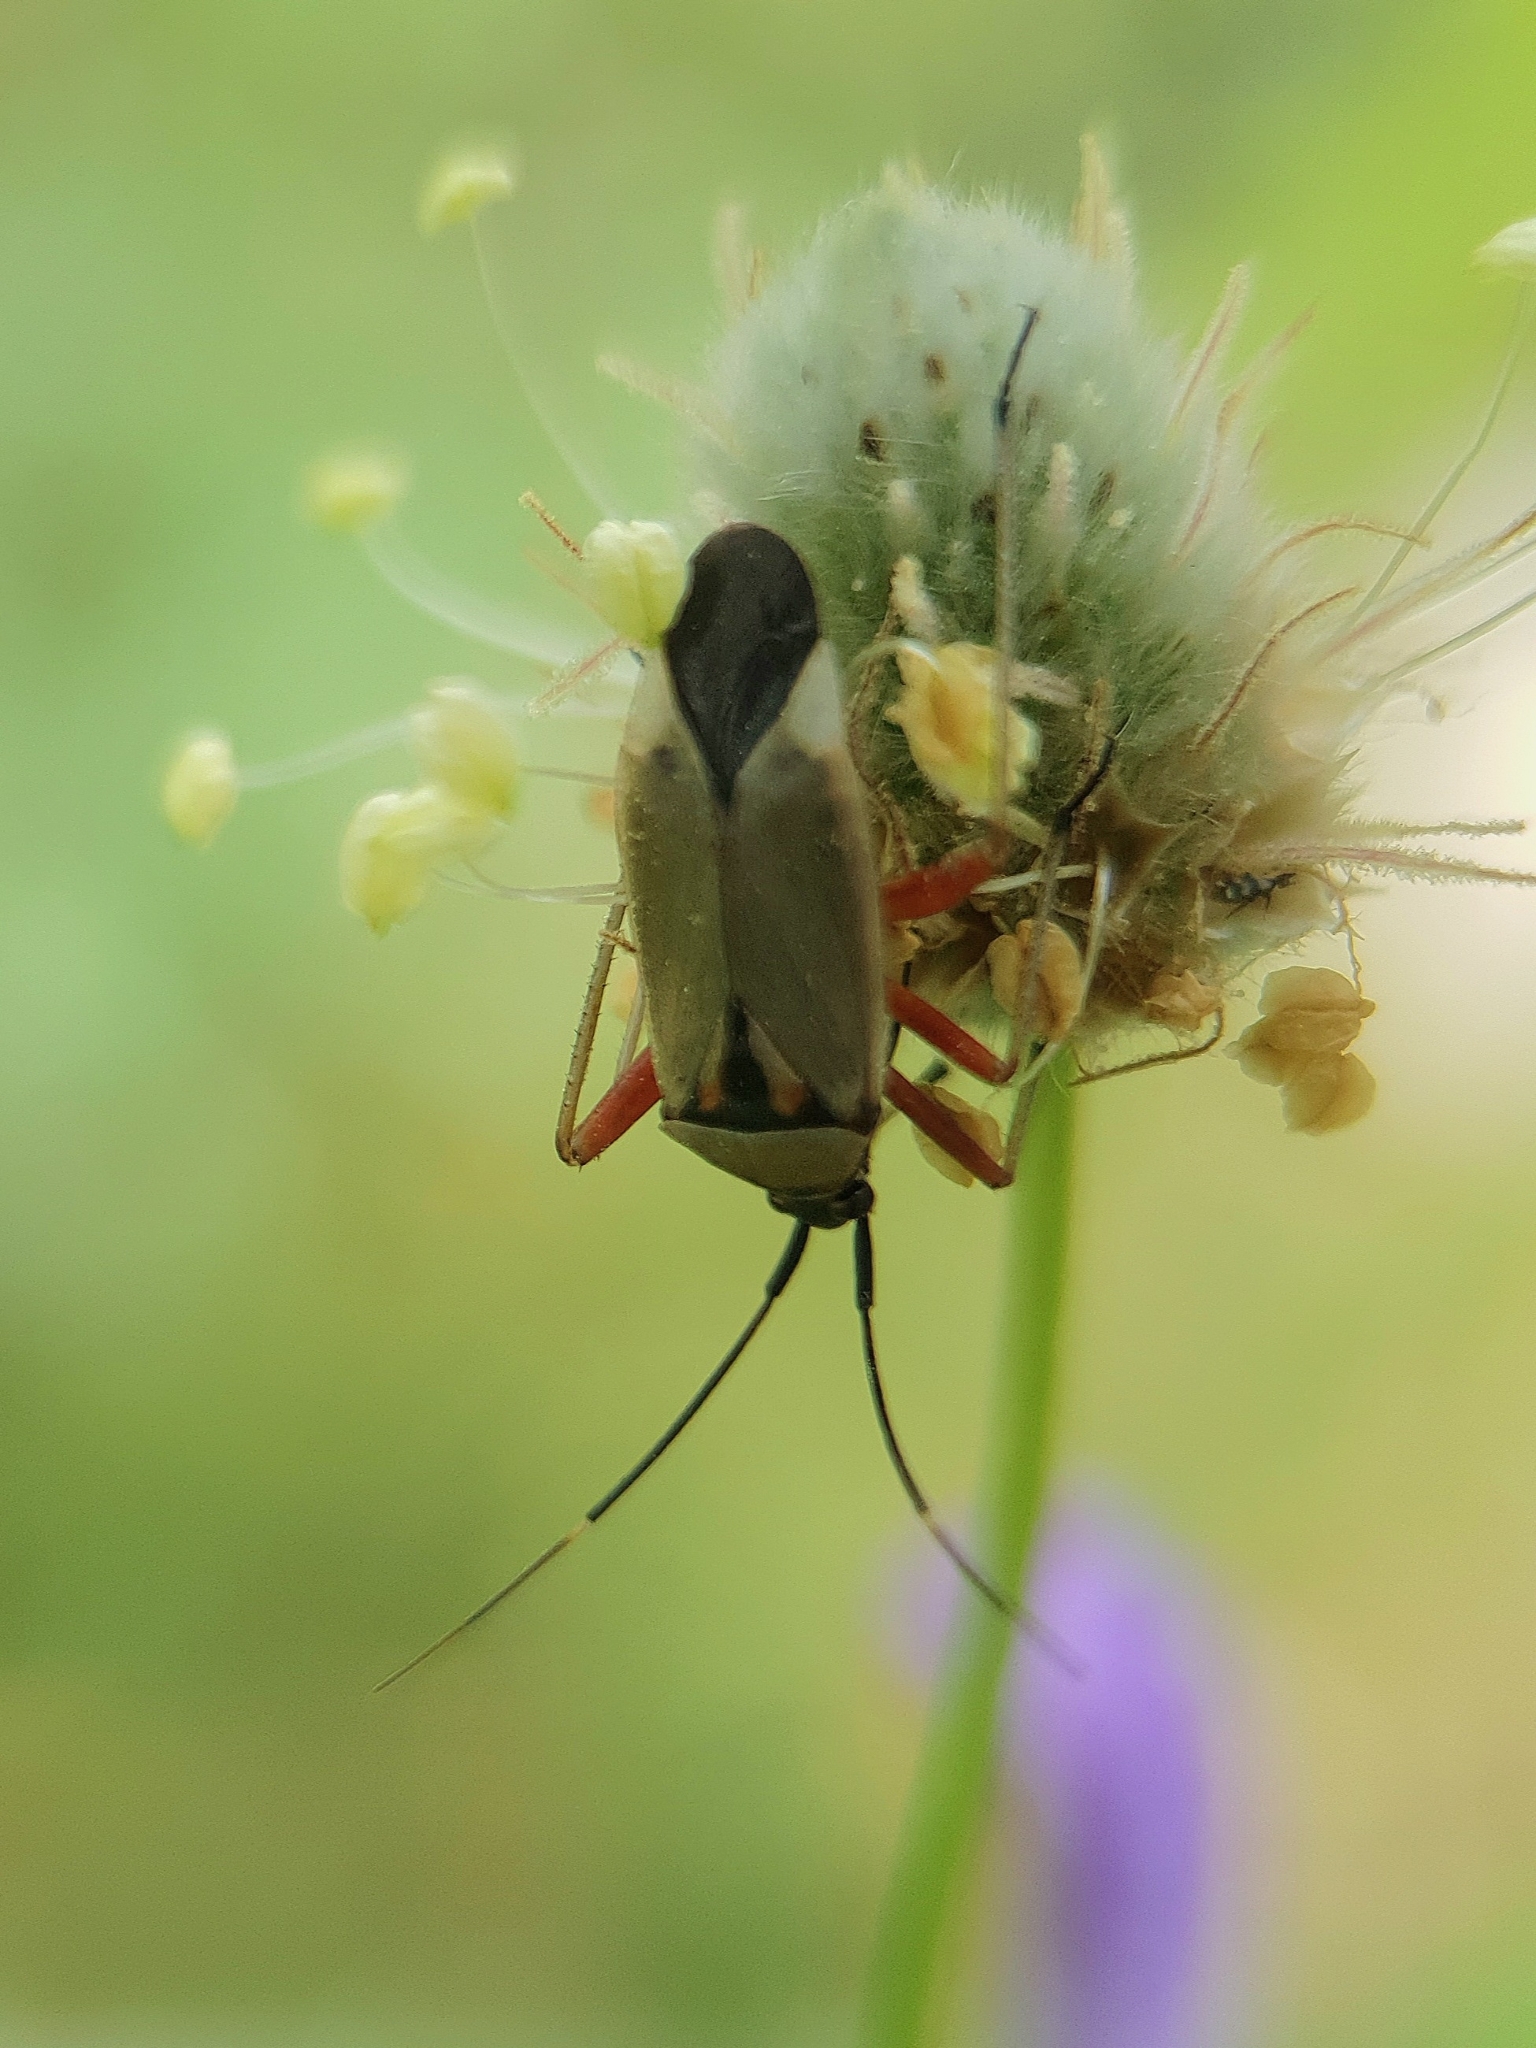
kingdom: Animalia
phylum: Arthropoda
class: Insecta
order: Hemiptera
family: Miridae
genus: Calocoris
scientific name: Calocoris nemoralis
